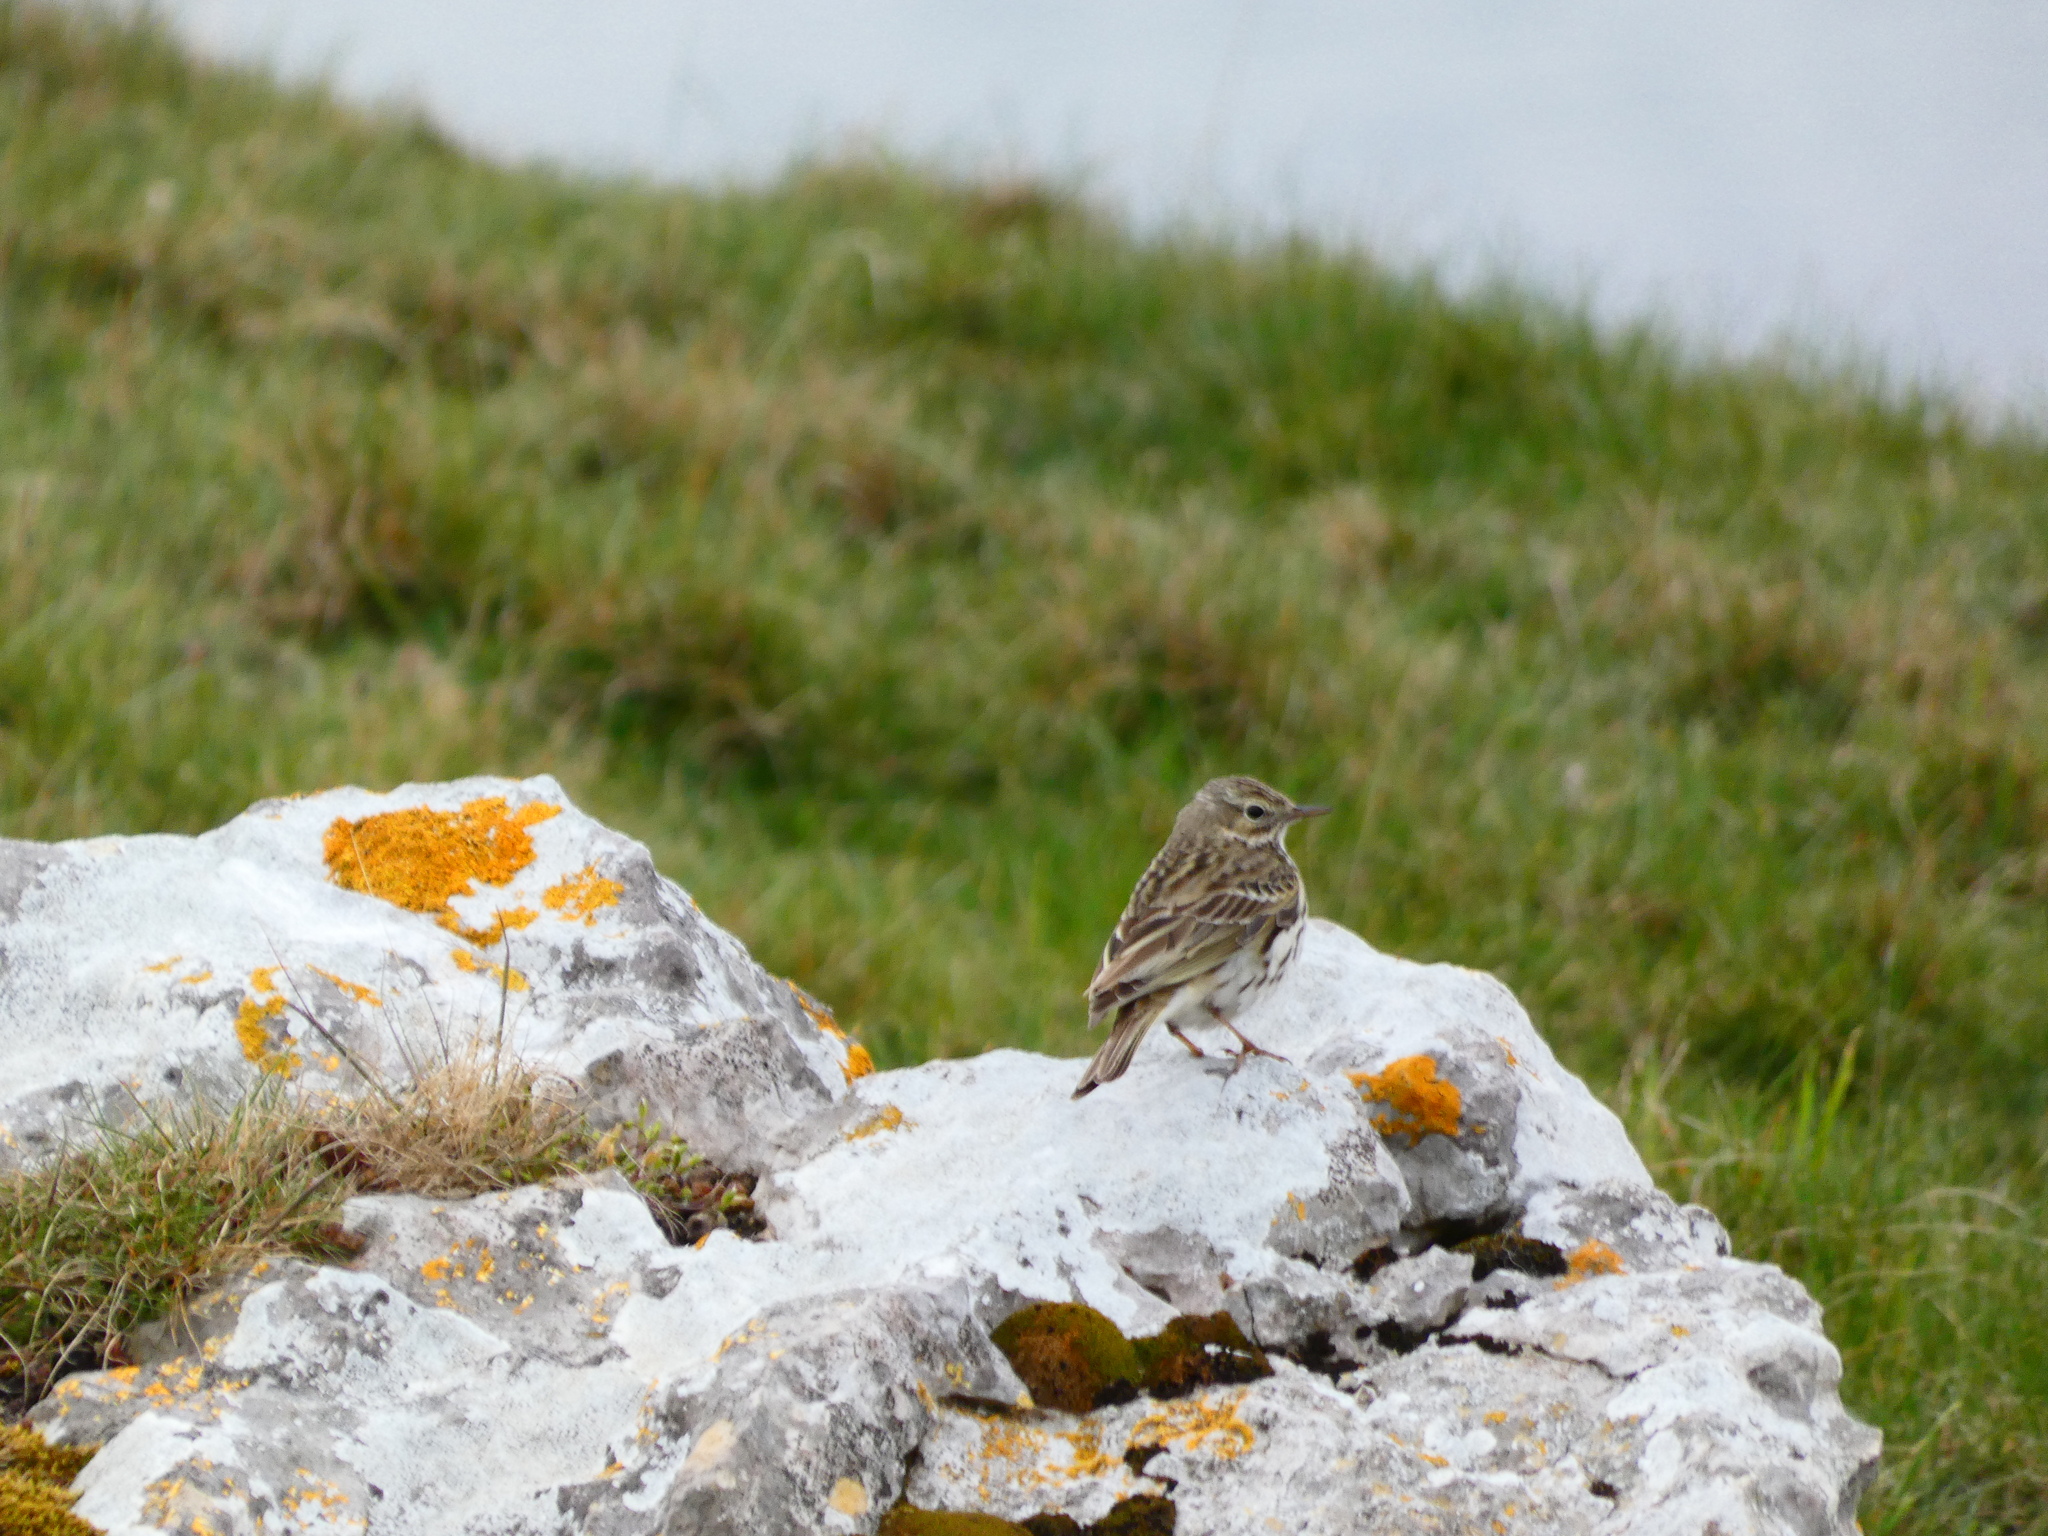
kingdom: Animalia
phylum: Chordata
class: Aves
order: Passeriformes
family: Motacillidae
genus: Anthus
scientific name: Anthus pratensis
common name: Meadow pipit
